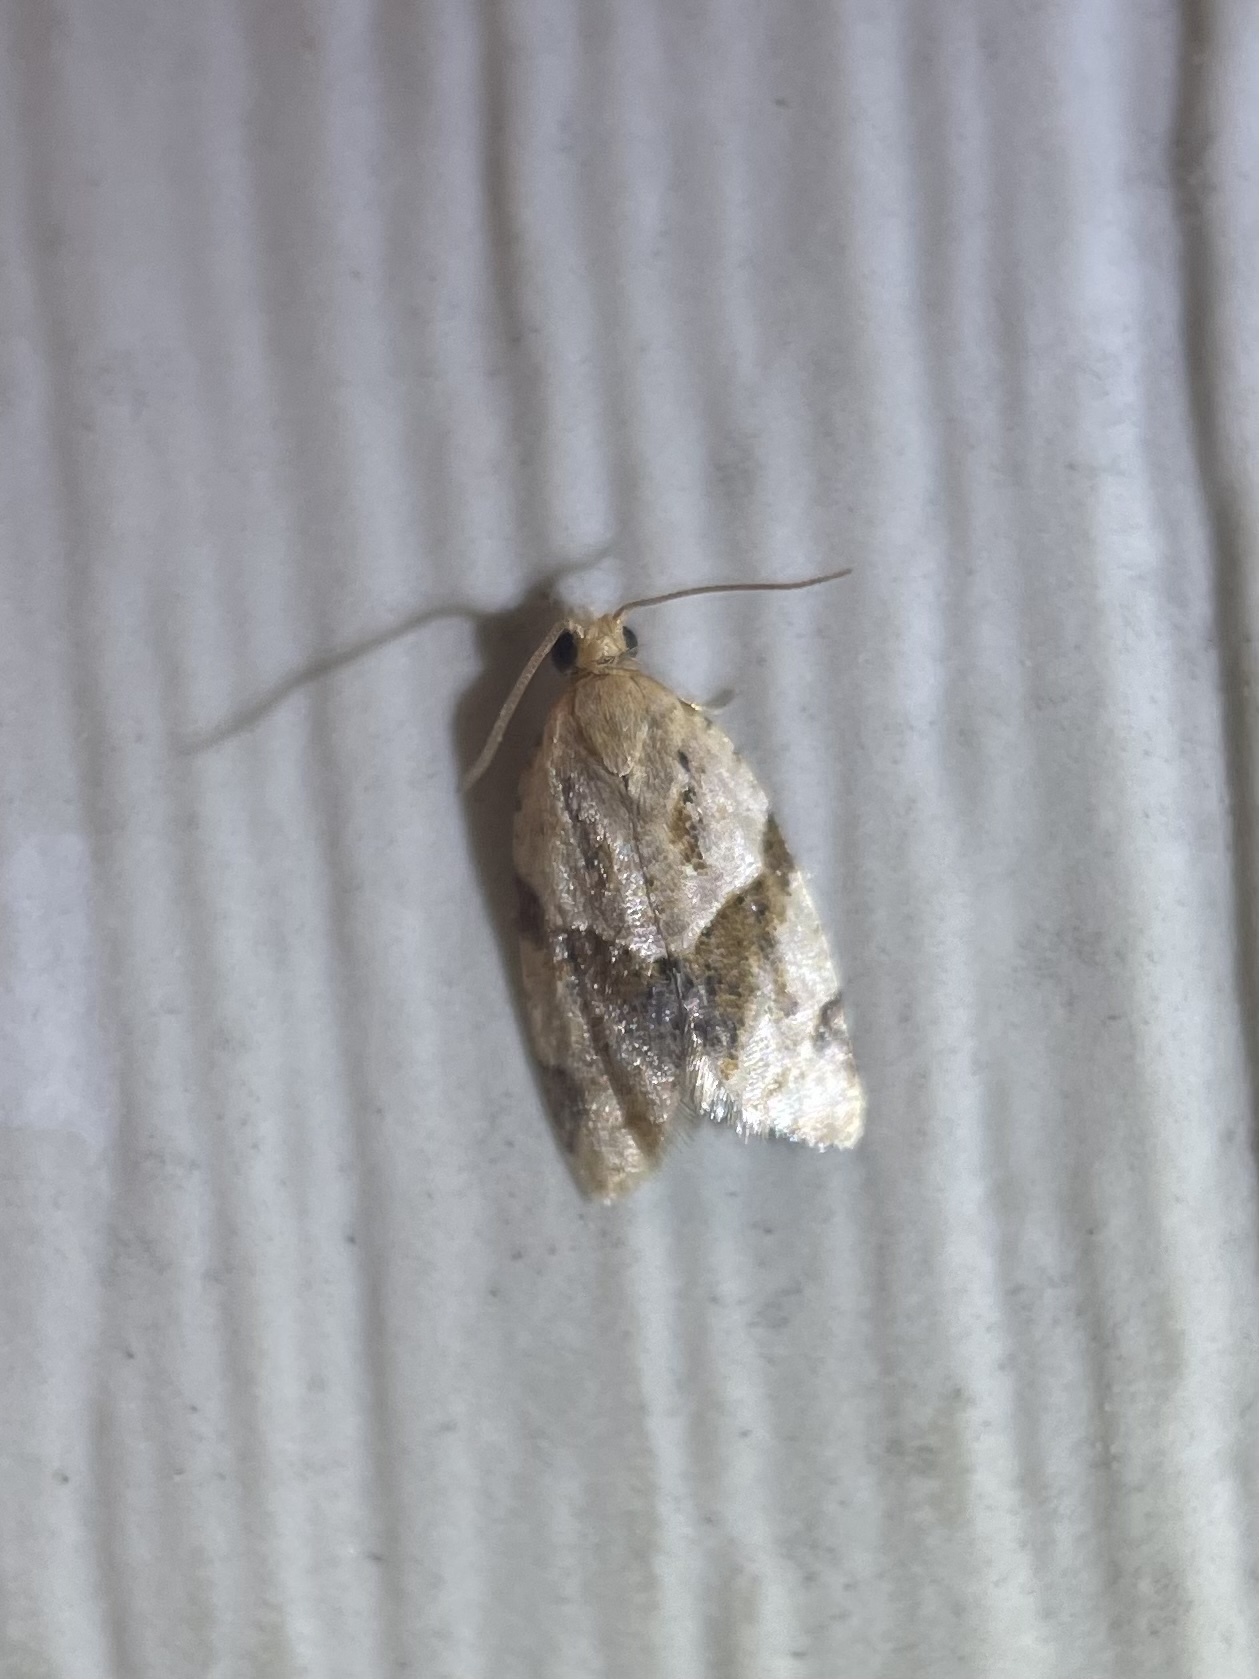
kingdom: Animalia
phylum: Arthropoda
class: Insecta
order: Lepidoptera
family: Tortricidae
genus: Clepsis
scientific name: Clepsis peritana
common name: Garden tortrix
